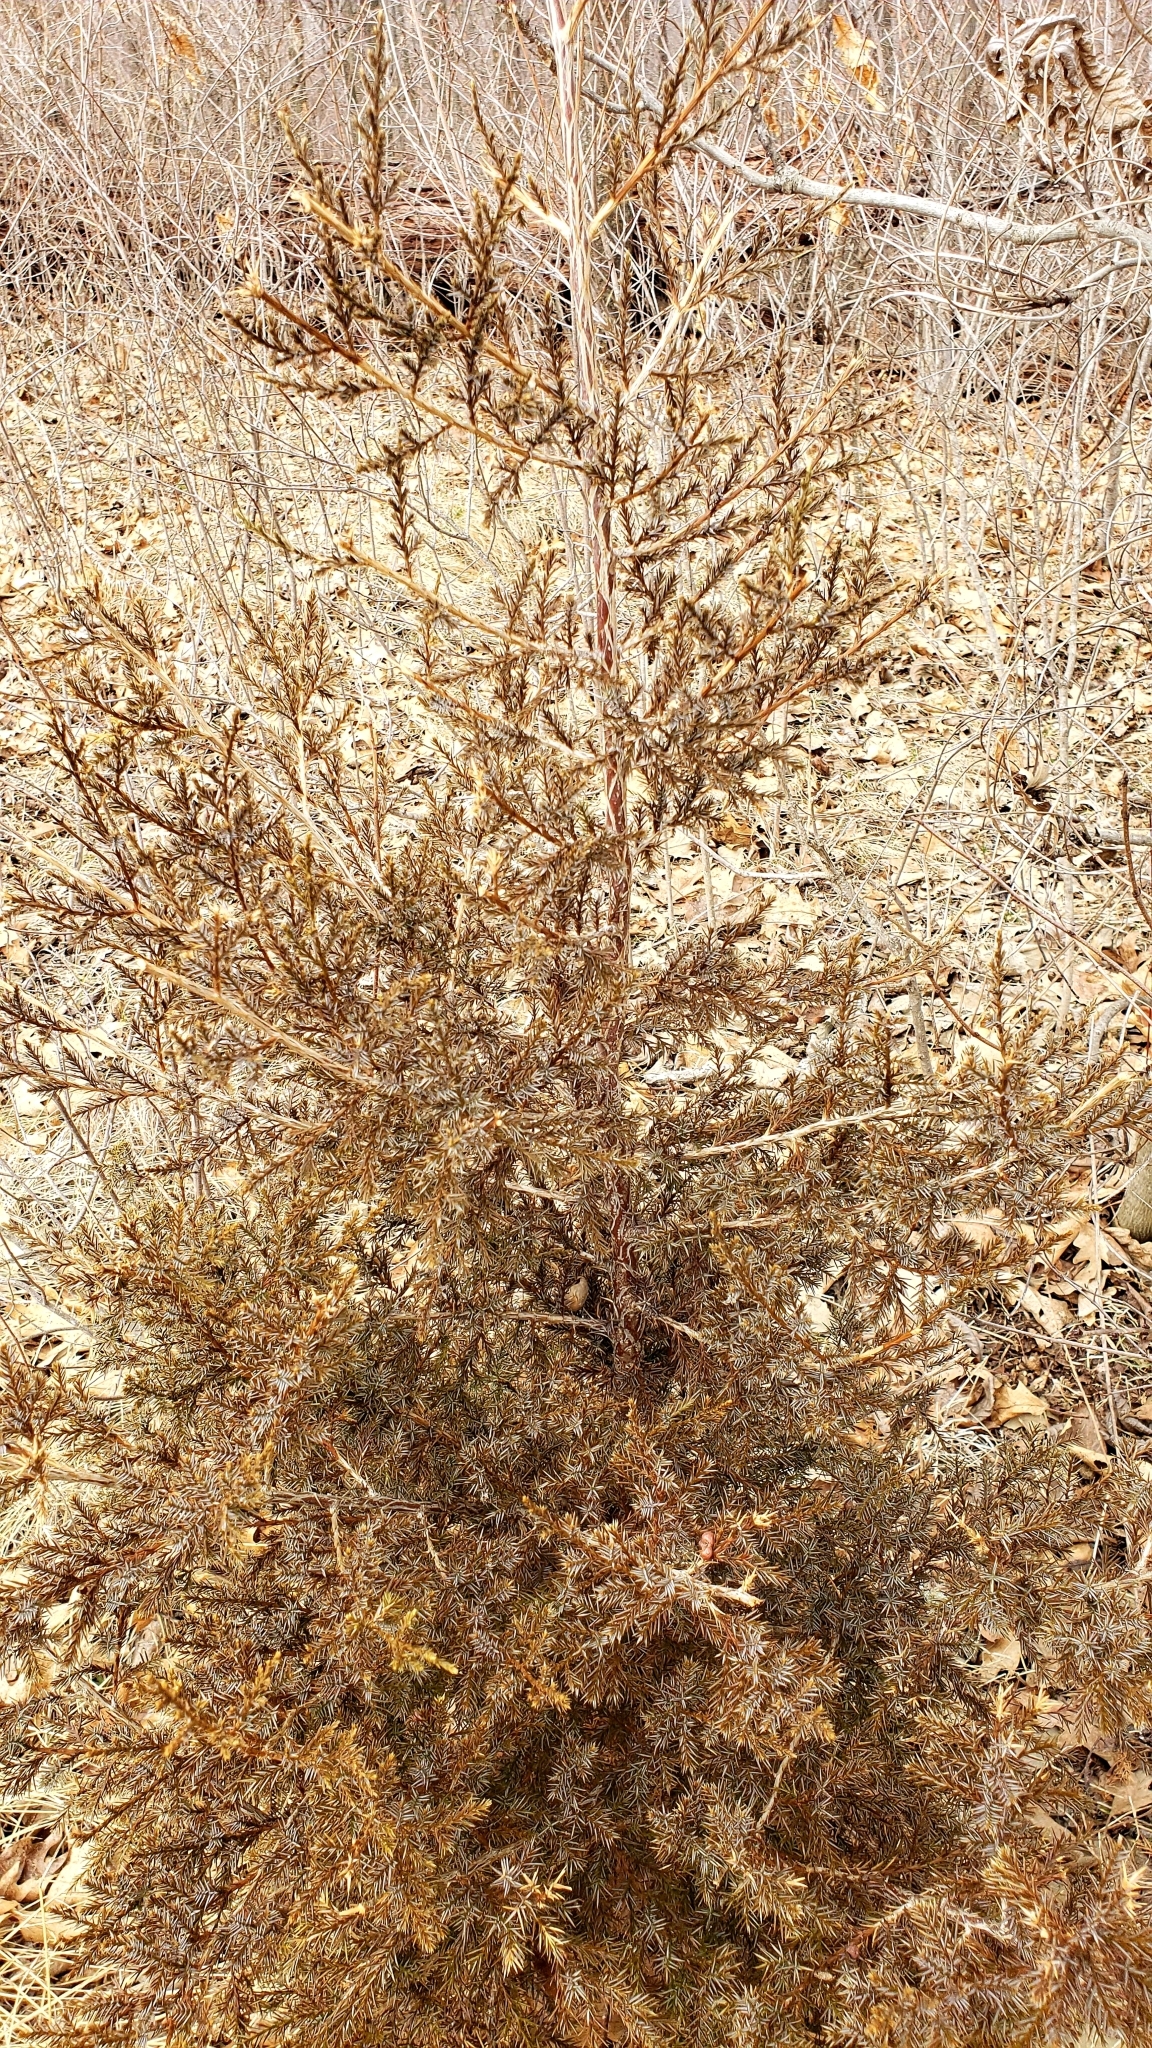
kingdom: Plantae
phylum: Tracheophyta
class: Pinopsida
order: Pinales
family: Cupressaceae
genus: Juniperus
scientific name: Juniperus virginiana
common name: Red juniper
